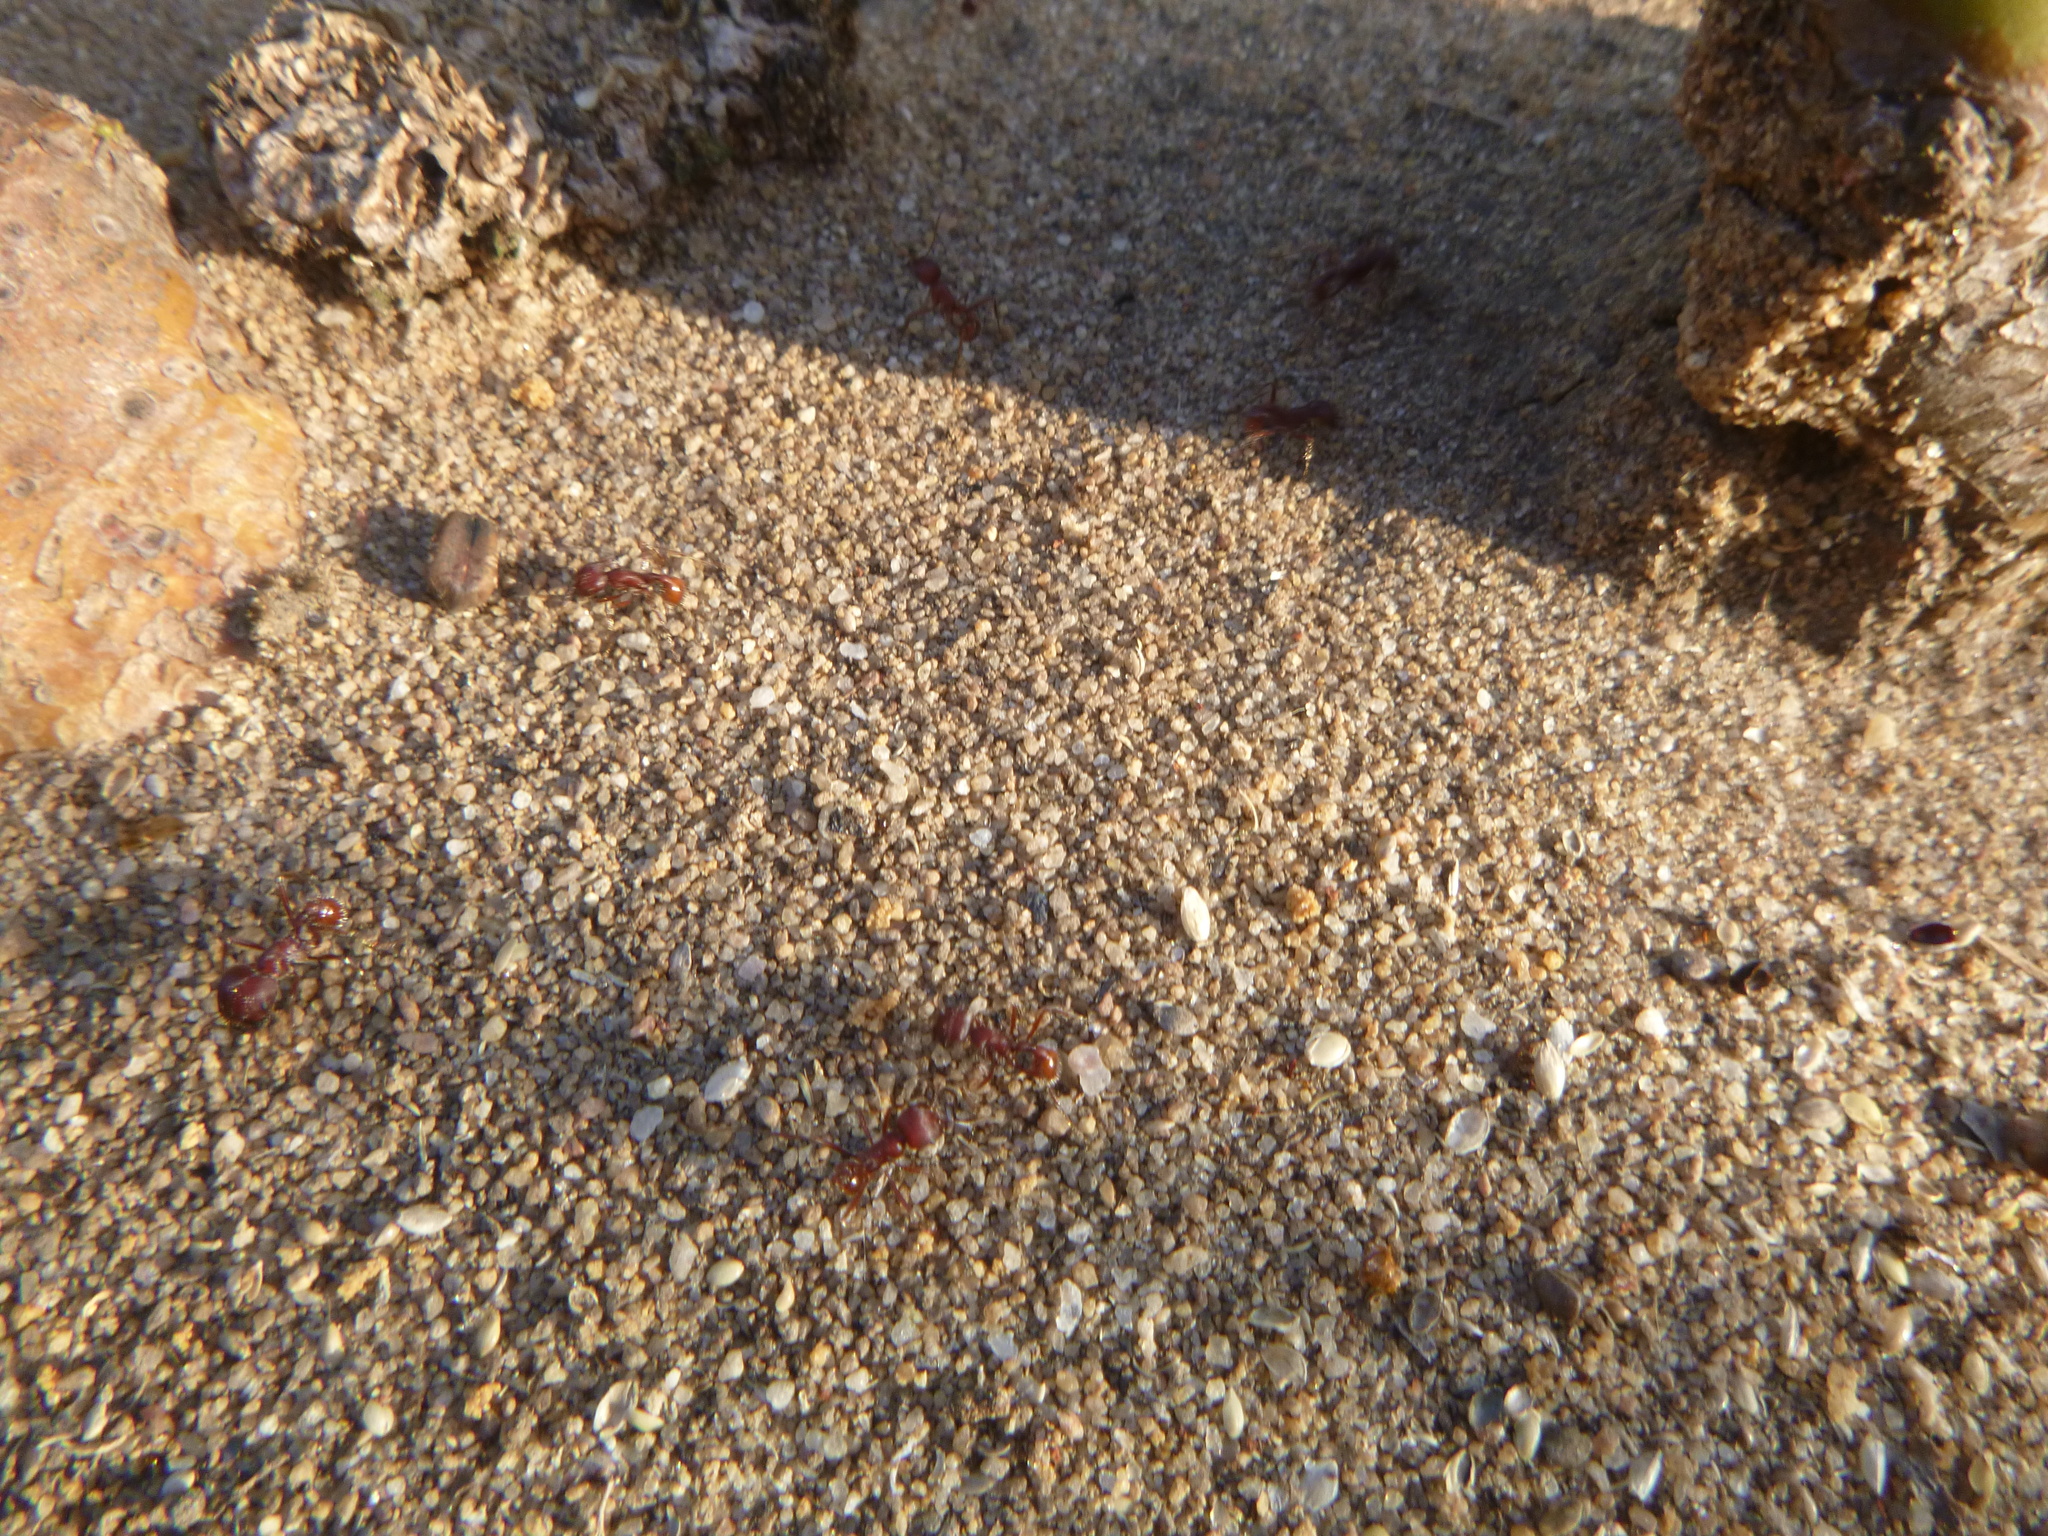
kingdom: Animalia
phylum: Arthropoda
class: Insecta
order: Hymenoptera
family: Formicidae
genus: Pogonomyrmex
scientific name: Pogonomyrmex badius
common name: Florida harvester ant
